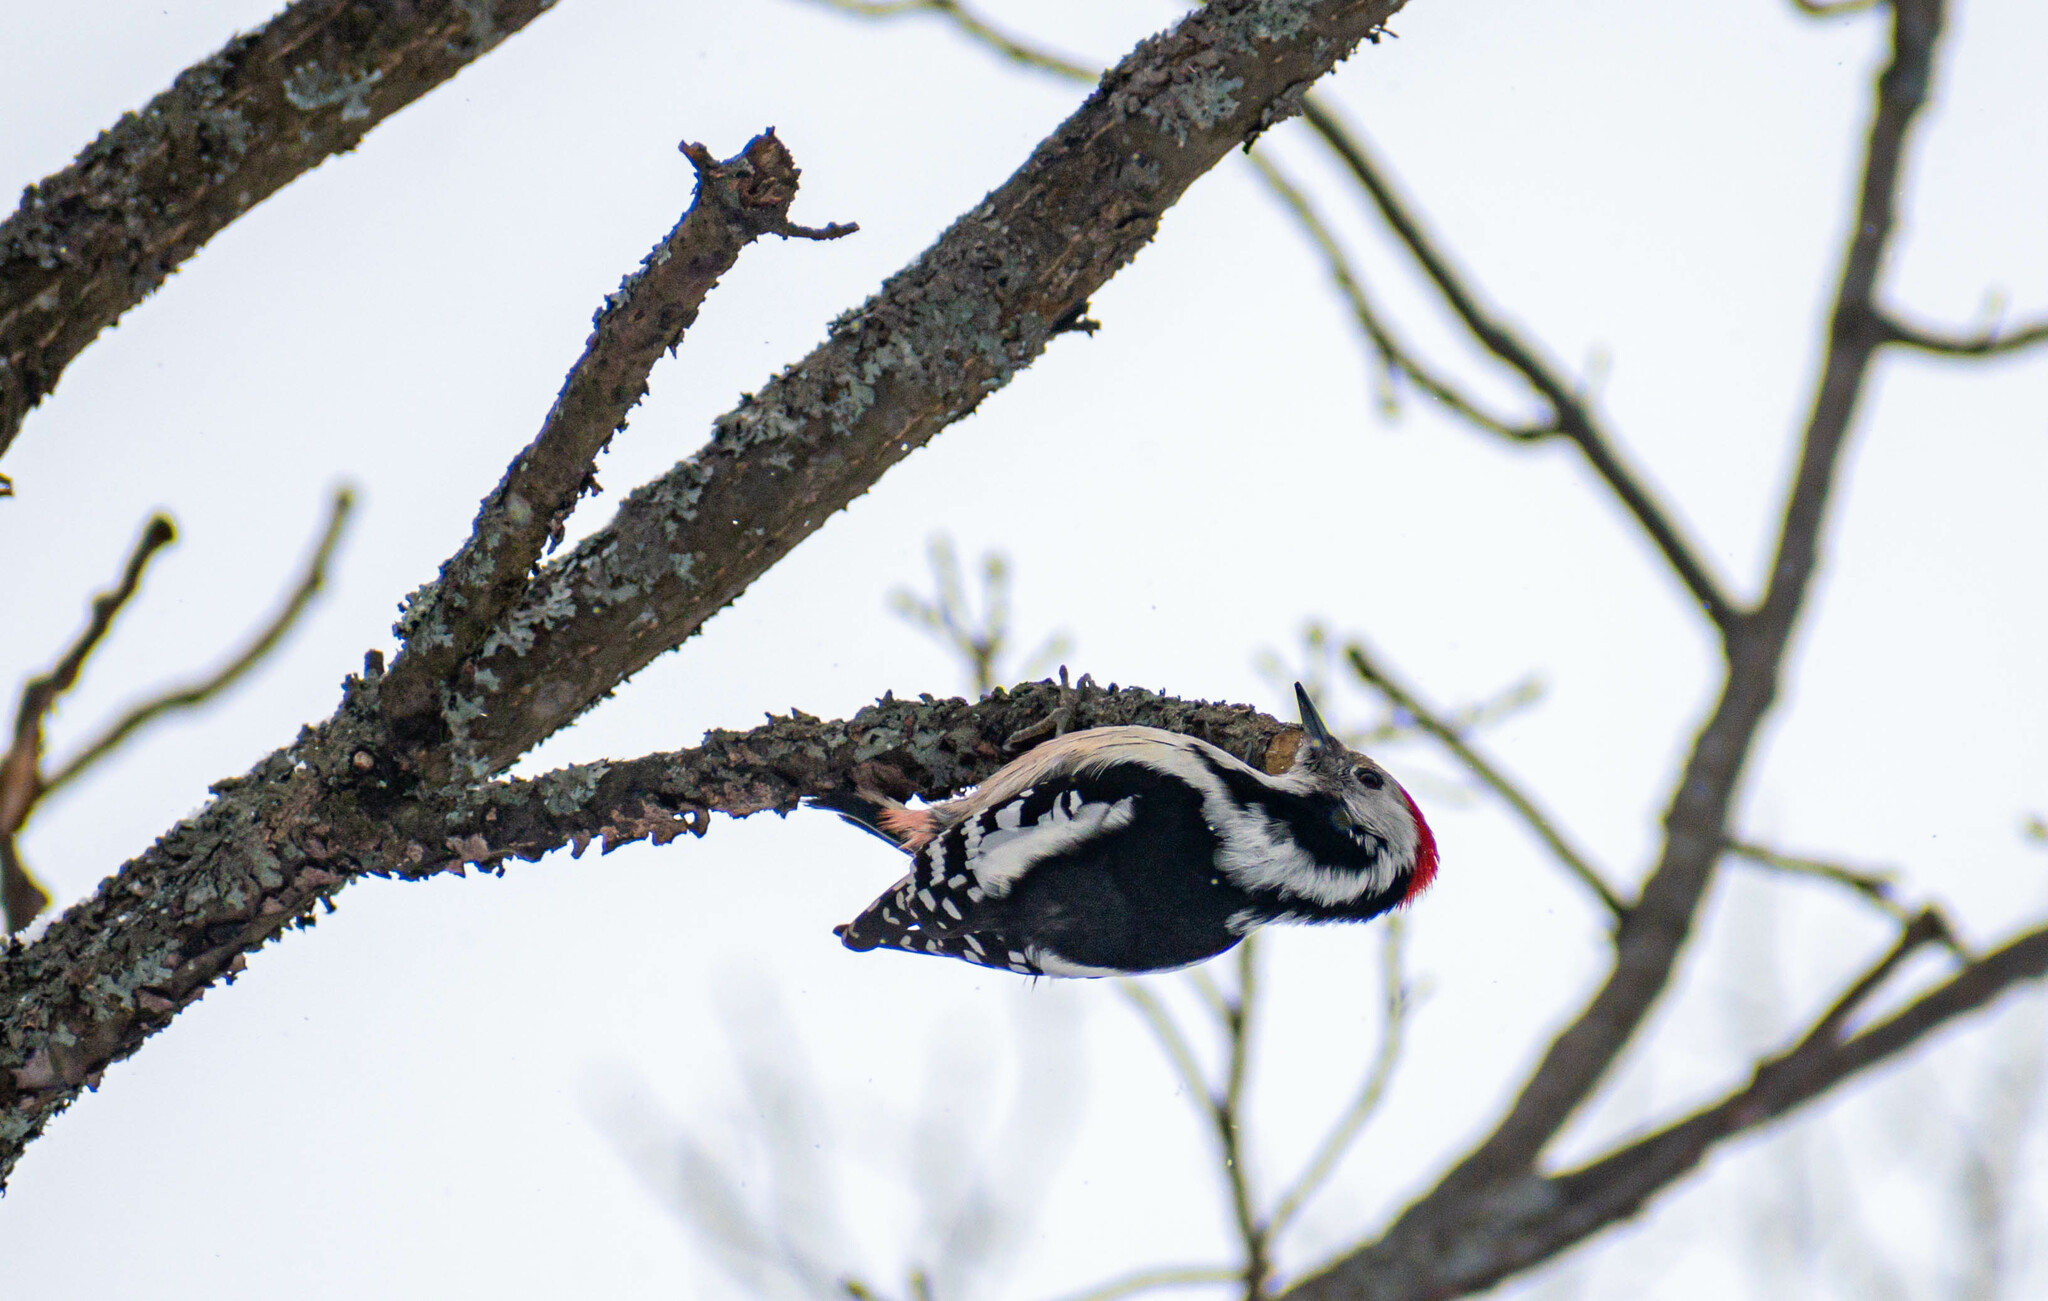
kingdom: Animalia
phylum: Chordata
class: Aves
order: Piciformes
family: Picidae
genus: Dendrocoptes
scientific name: Dendrocoptes medius
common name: Middle spotted woodpecker
